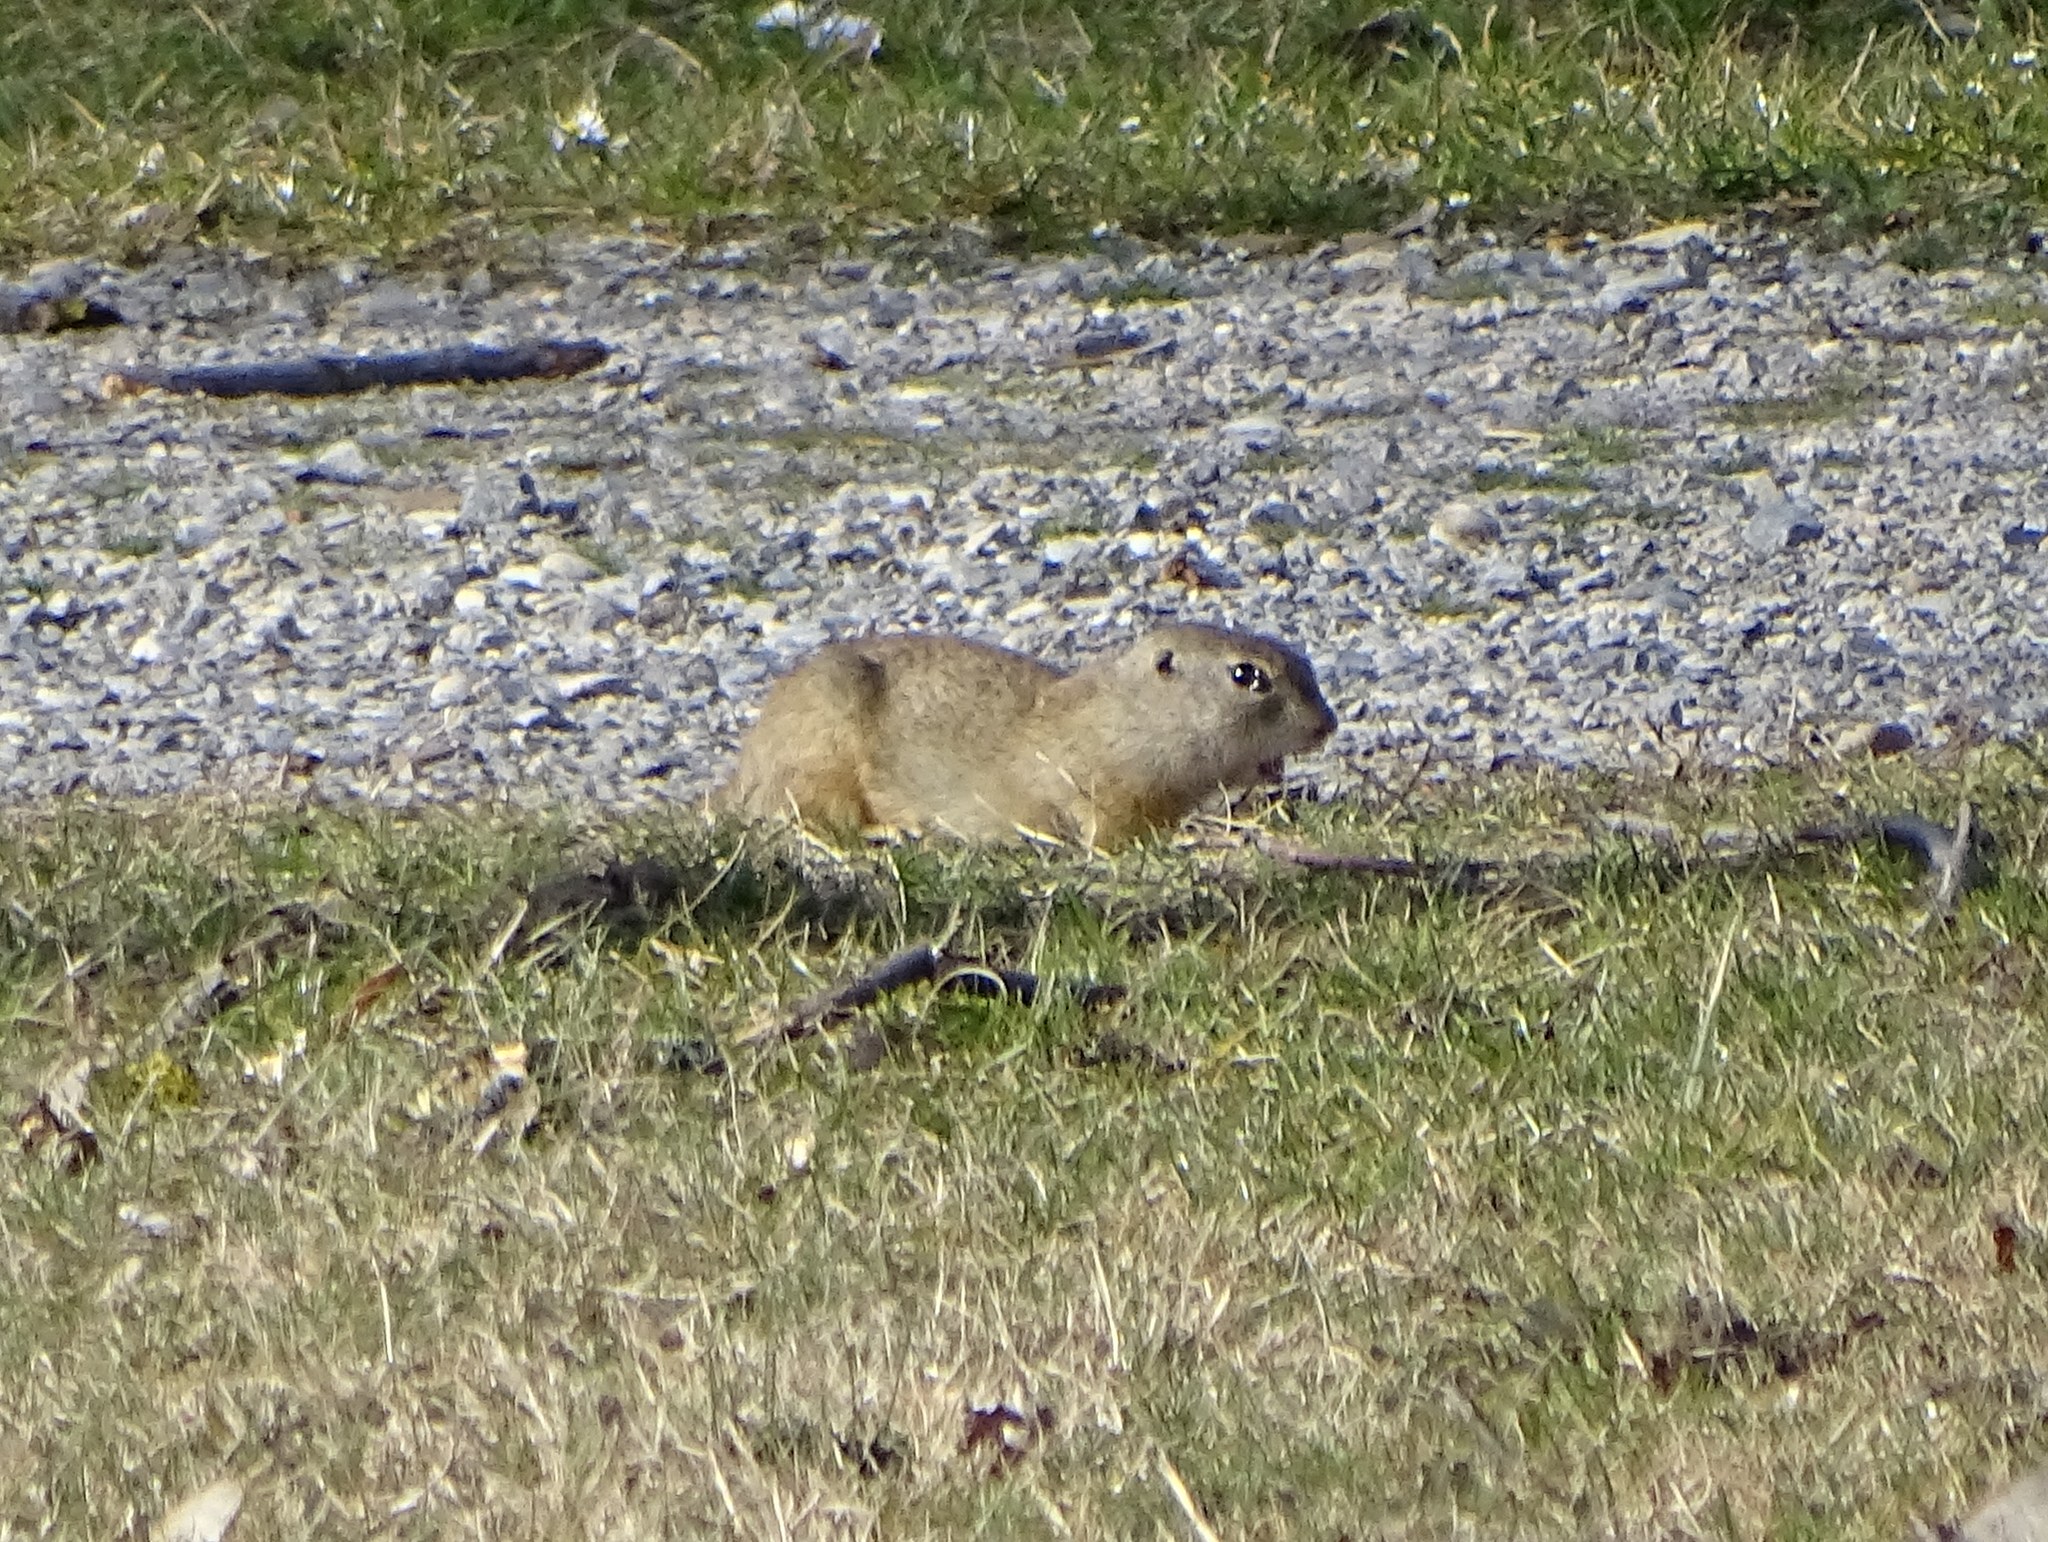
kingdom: Animalia
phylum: Chordata
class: Mammalia
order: Rodentia
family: Sciuridae
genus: Spermophilus
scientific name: Spermophilus citellus
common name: European ground squirrel
